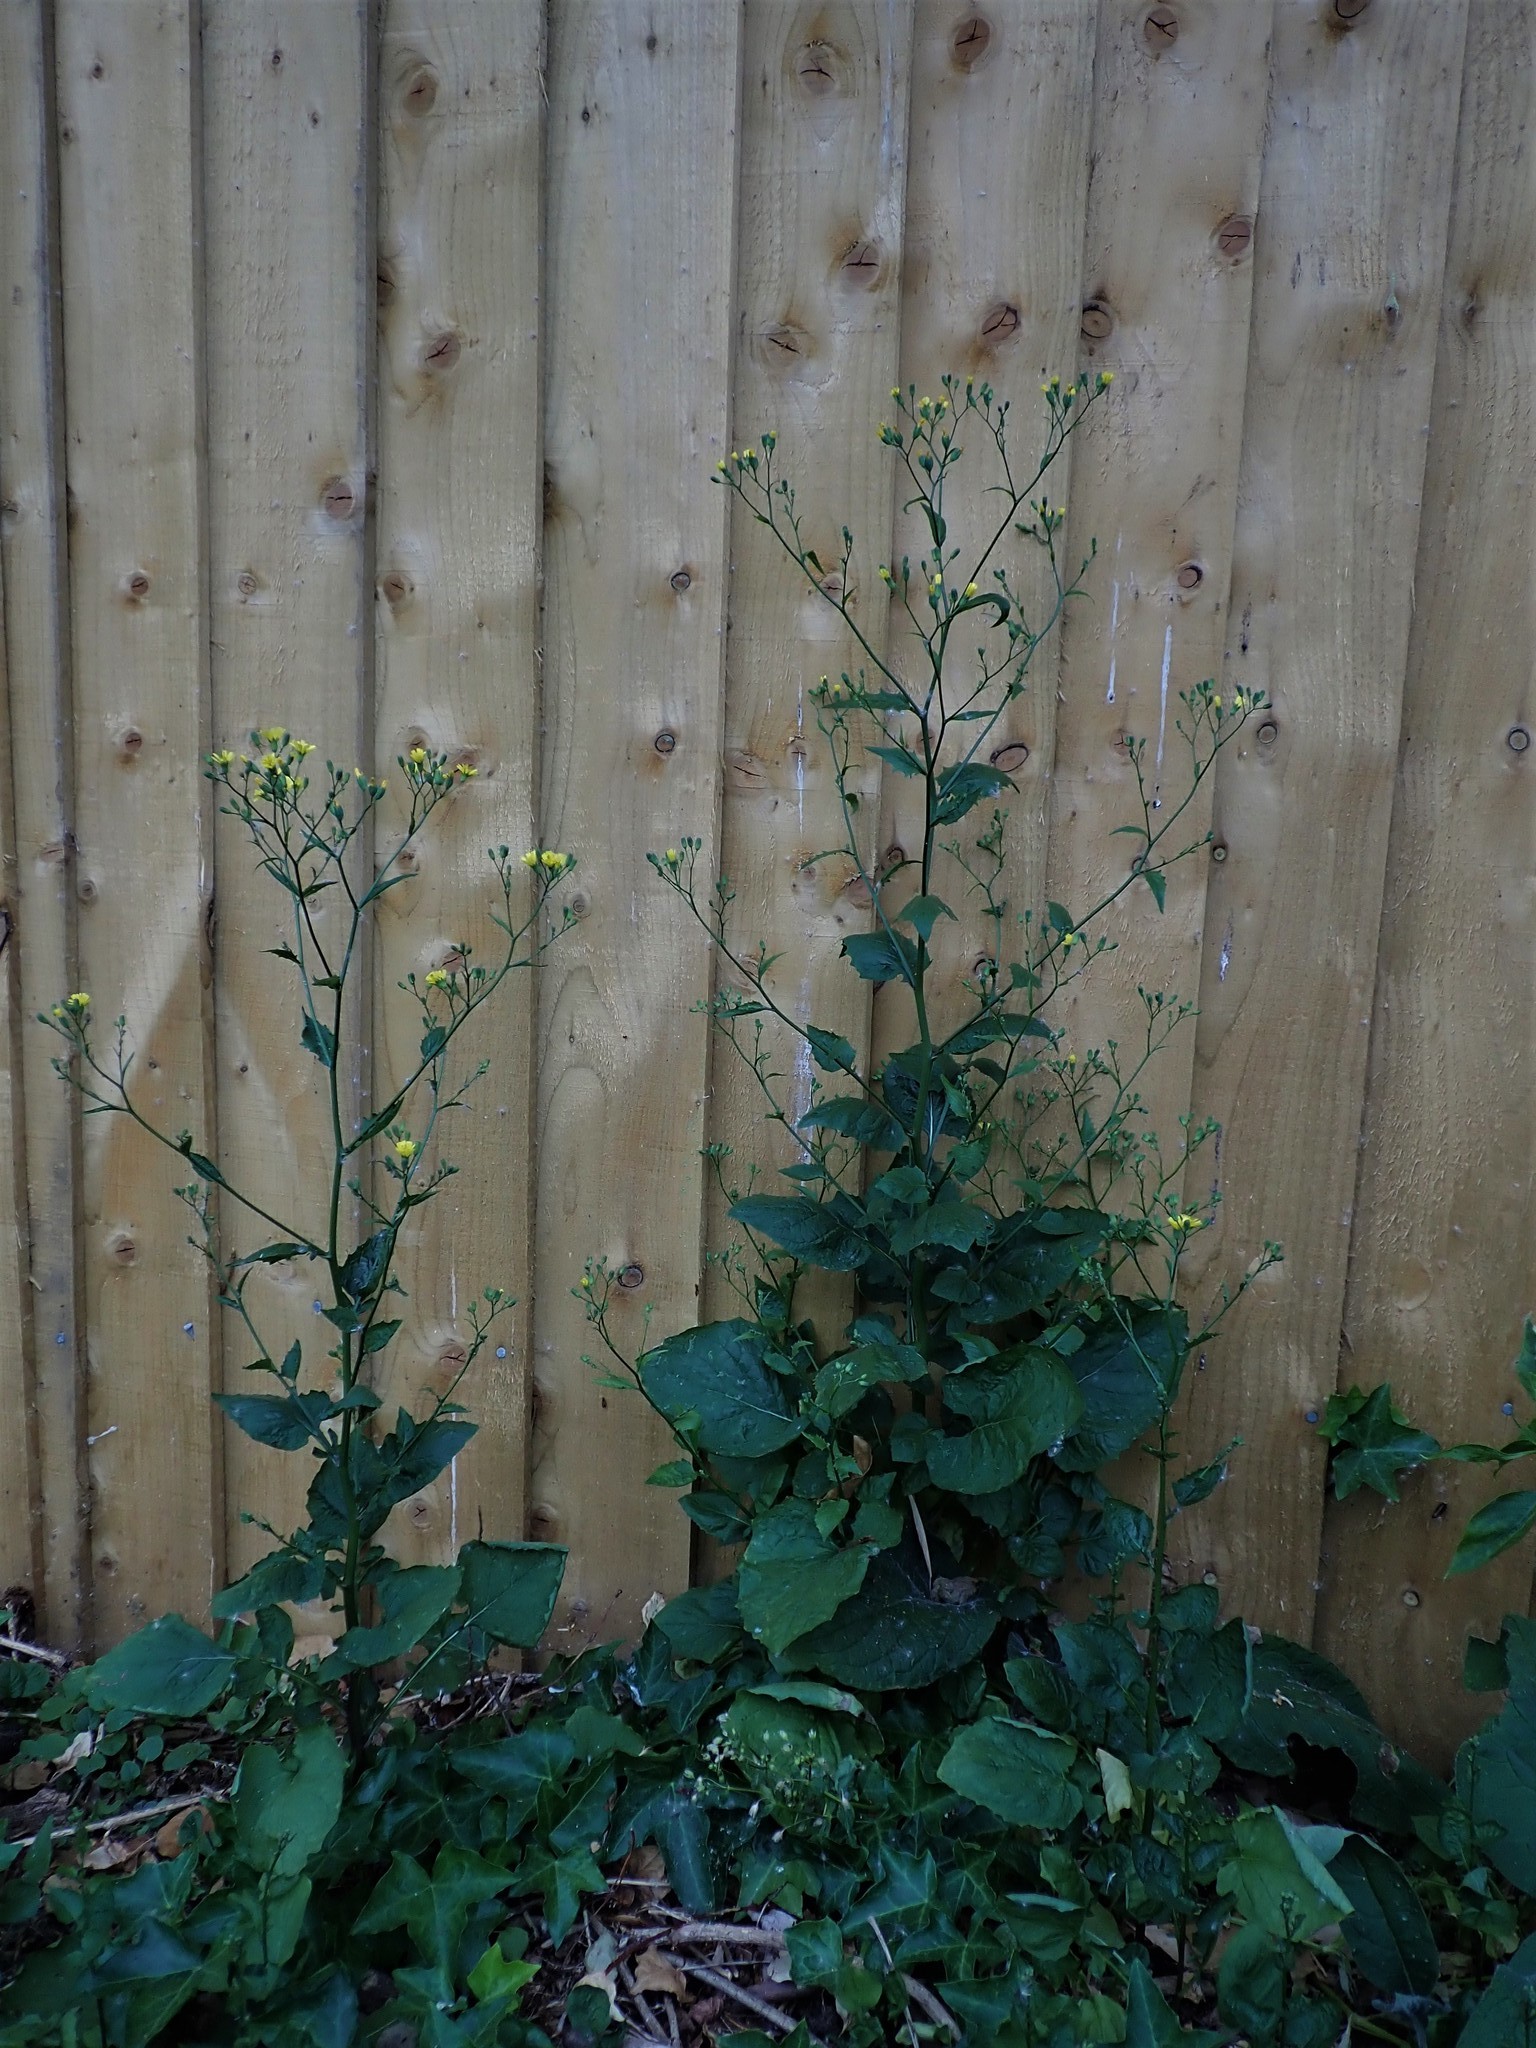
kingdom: Plantae
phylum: Tracheophyta
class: Magnoliopsida
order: Asterales
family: Asteraceae
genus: Lapsana
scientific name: Lapsana communis
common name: Nipplewort
